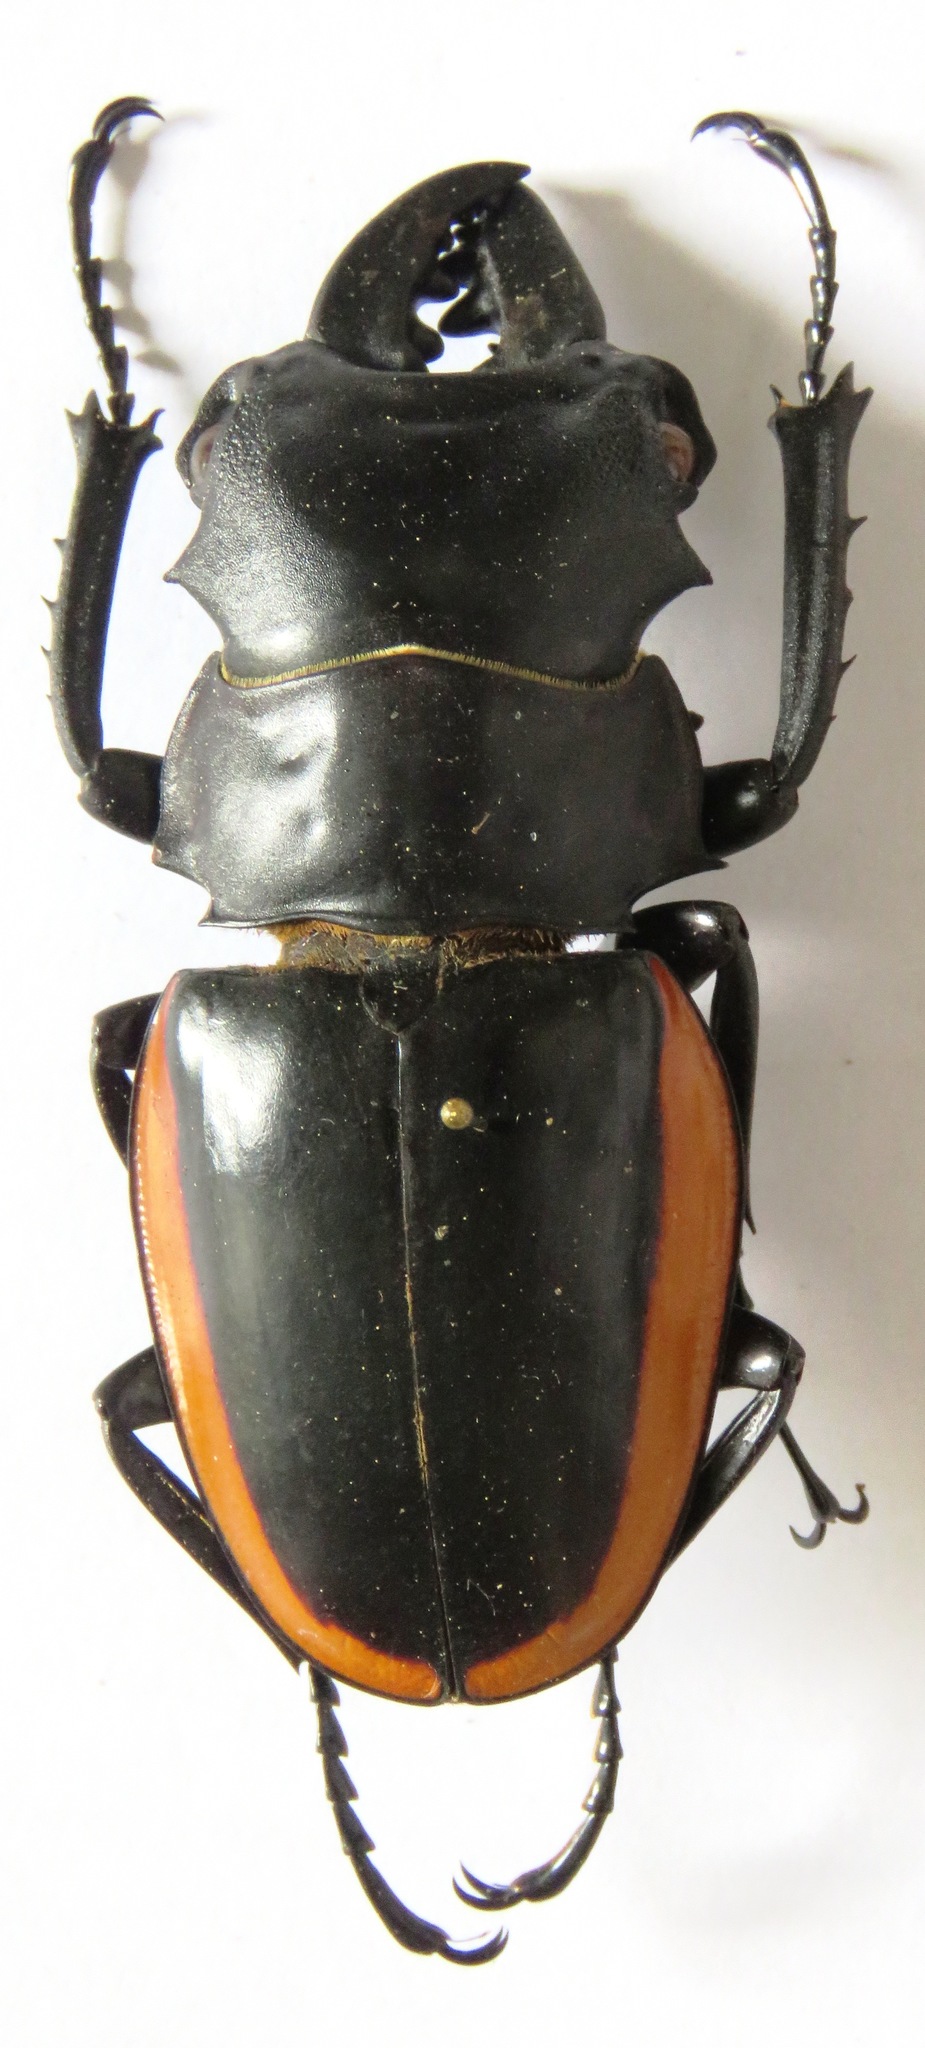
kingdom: Animalia
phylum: Arthropoda
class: Insecta
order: Coleoptera
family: Lucanidae
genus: Odontolabis
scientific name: Odontolabis cuvera
